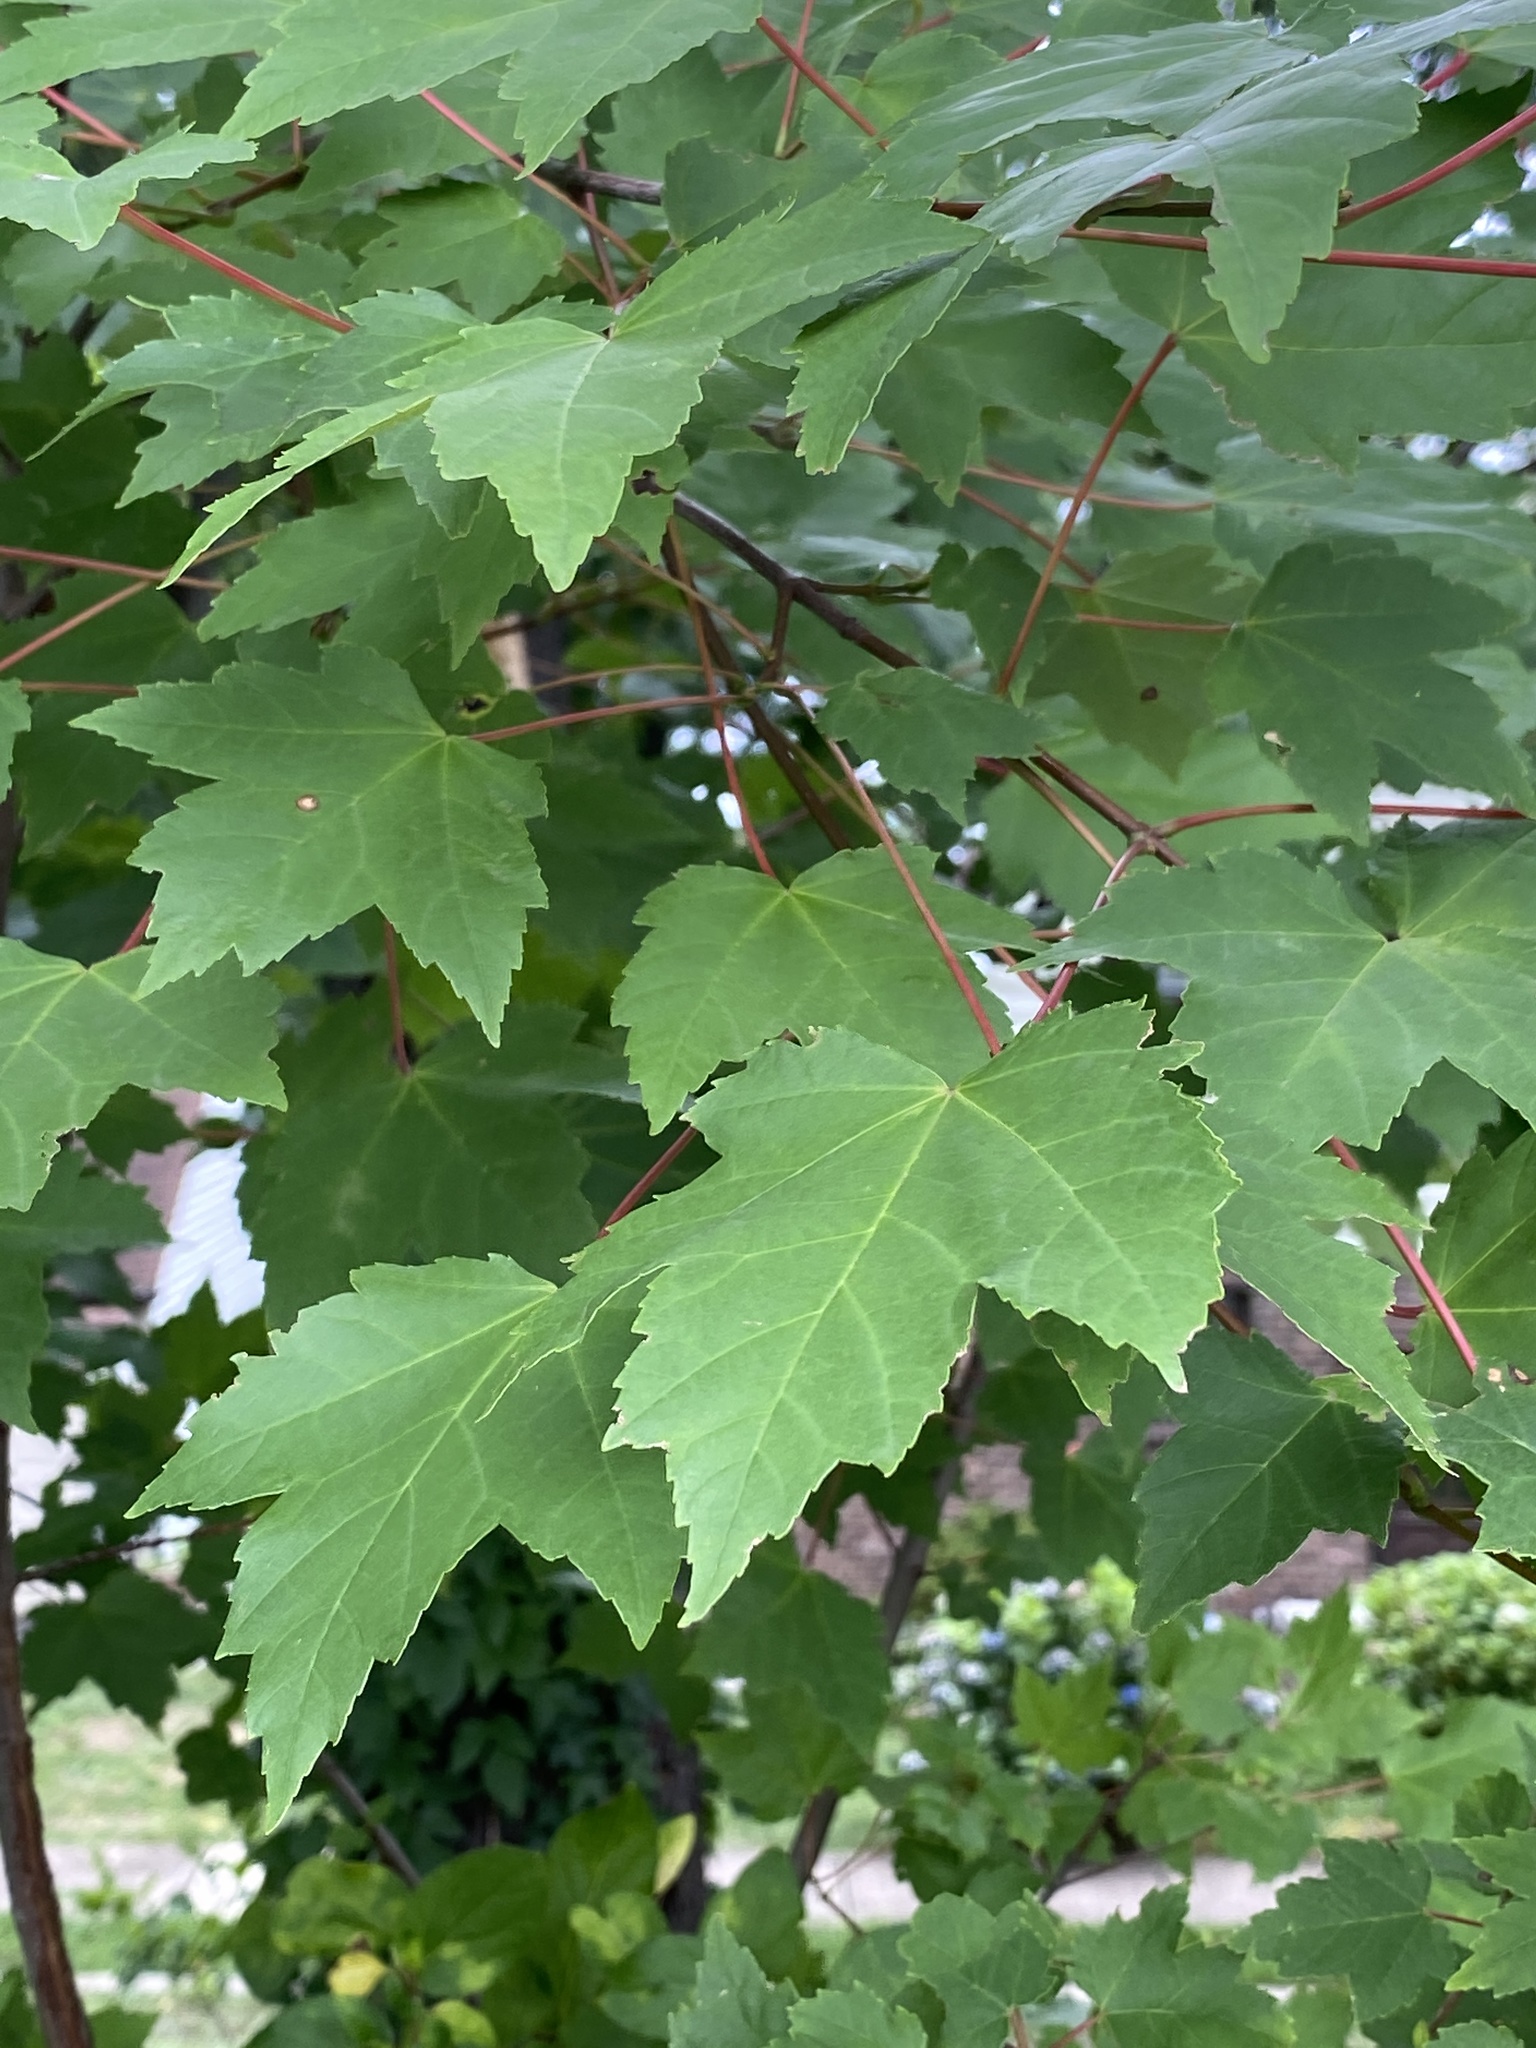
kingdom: Plantae
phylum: Tracheophyta
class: Magnoliopsida
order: Sapindales
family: Sapindaceae
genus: Acer
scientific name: Acer rubrum
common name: Red maple
